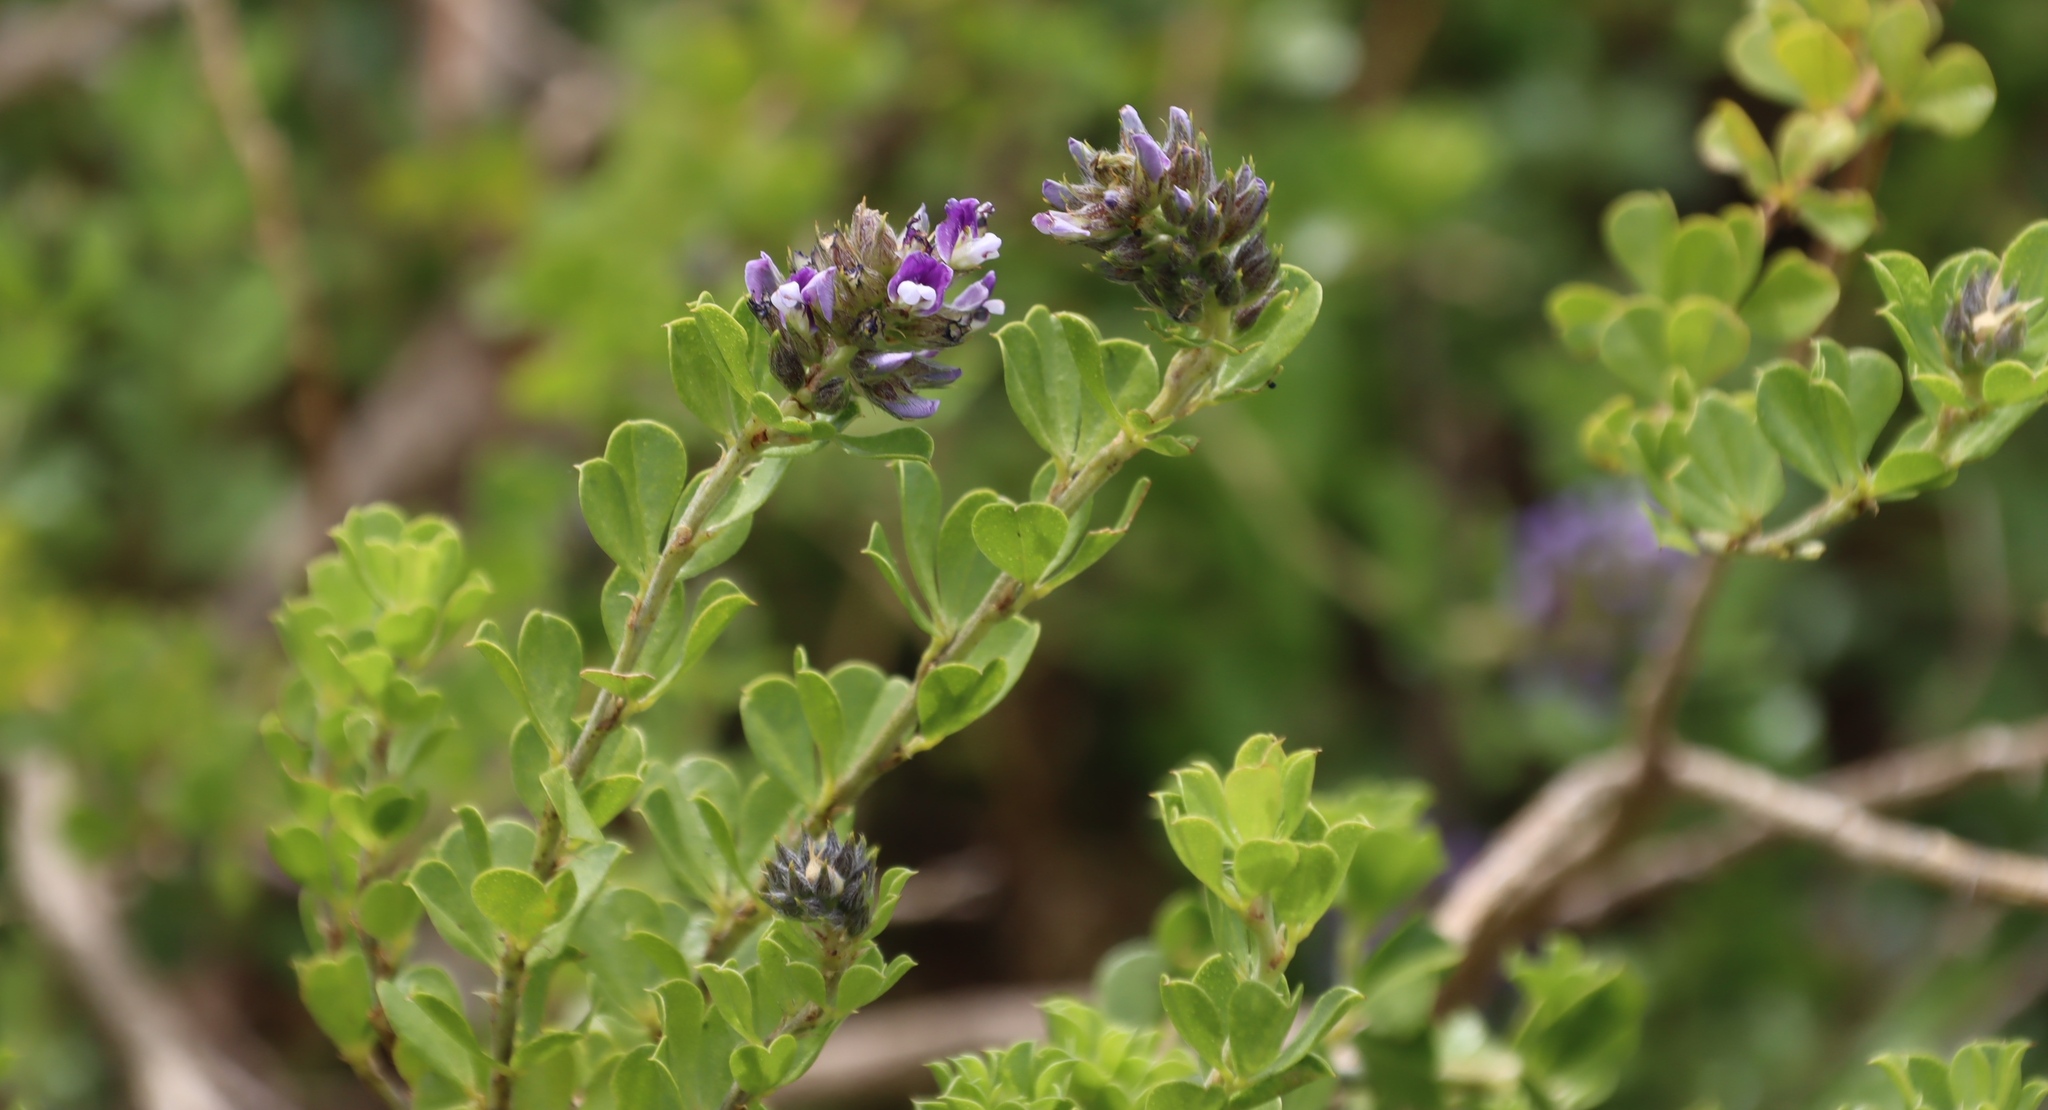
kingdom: Plantae
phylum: Tracheophyta
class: Magnoliopsida
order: Fabales
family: Fabaceae
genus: Psoralea
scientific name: Psoralea bracteolata
